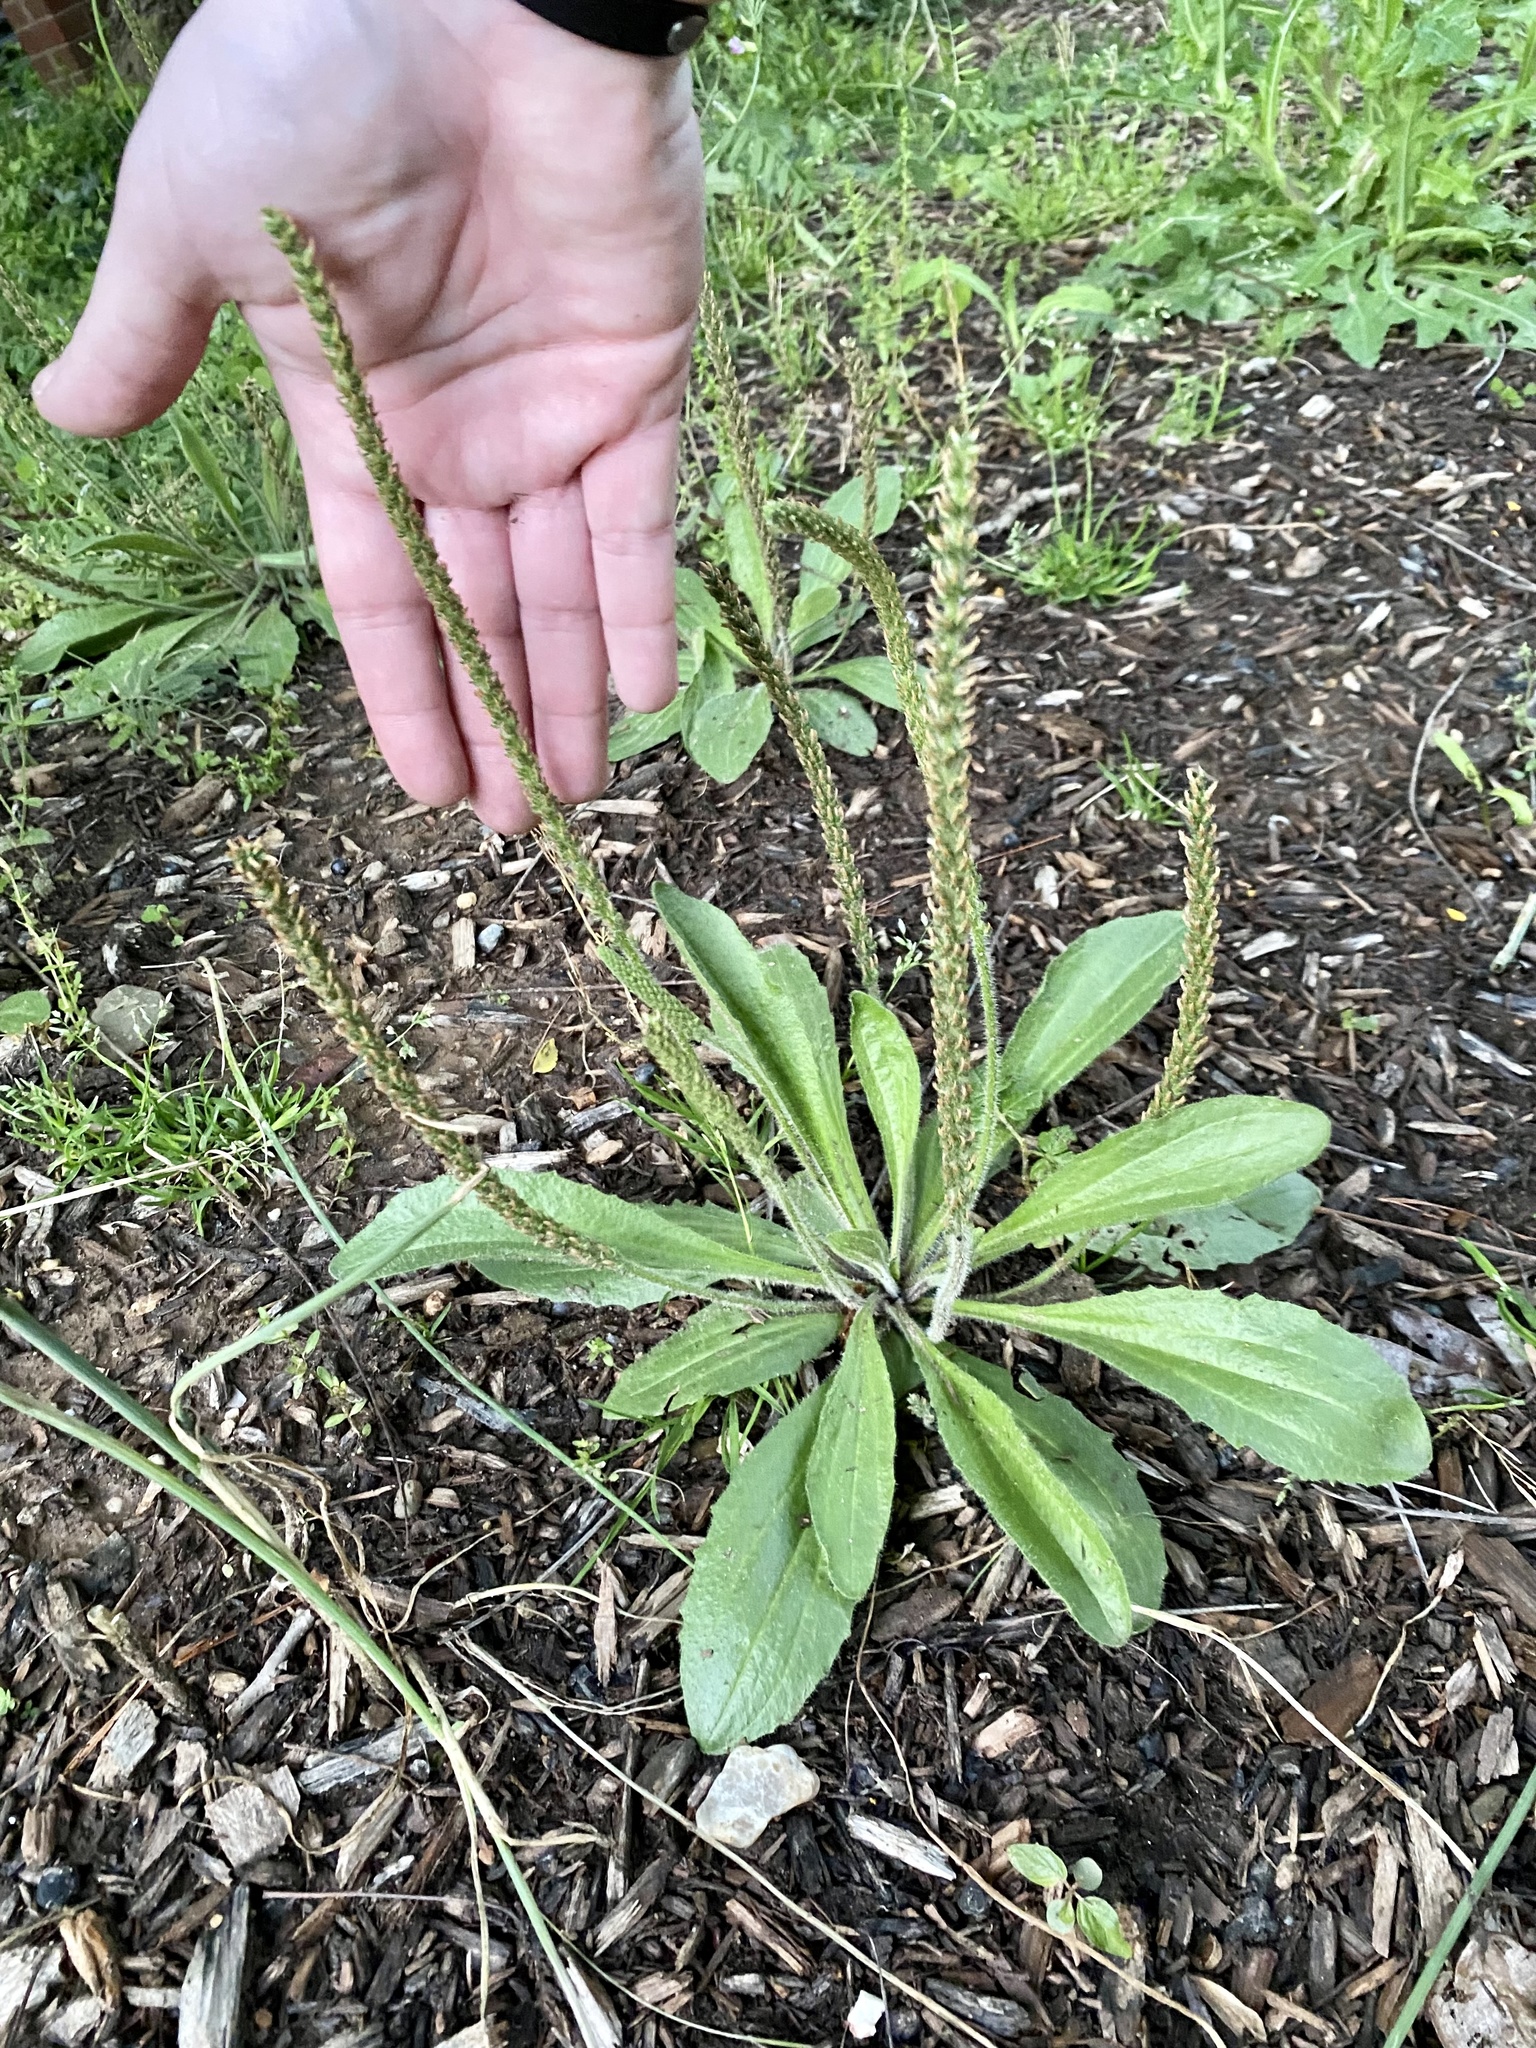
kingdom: Plantae
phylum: Tracheophyta
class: Magnoliopsida
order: Lamiales
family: Plantaginaceae
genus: Plantago
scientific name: Plantago virginica
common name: Hoary plantain
